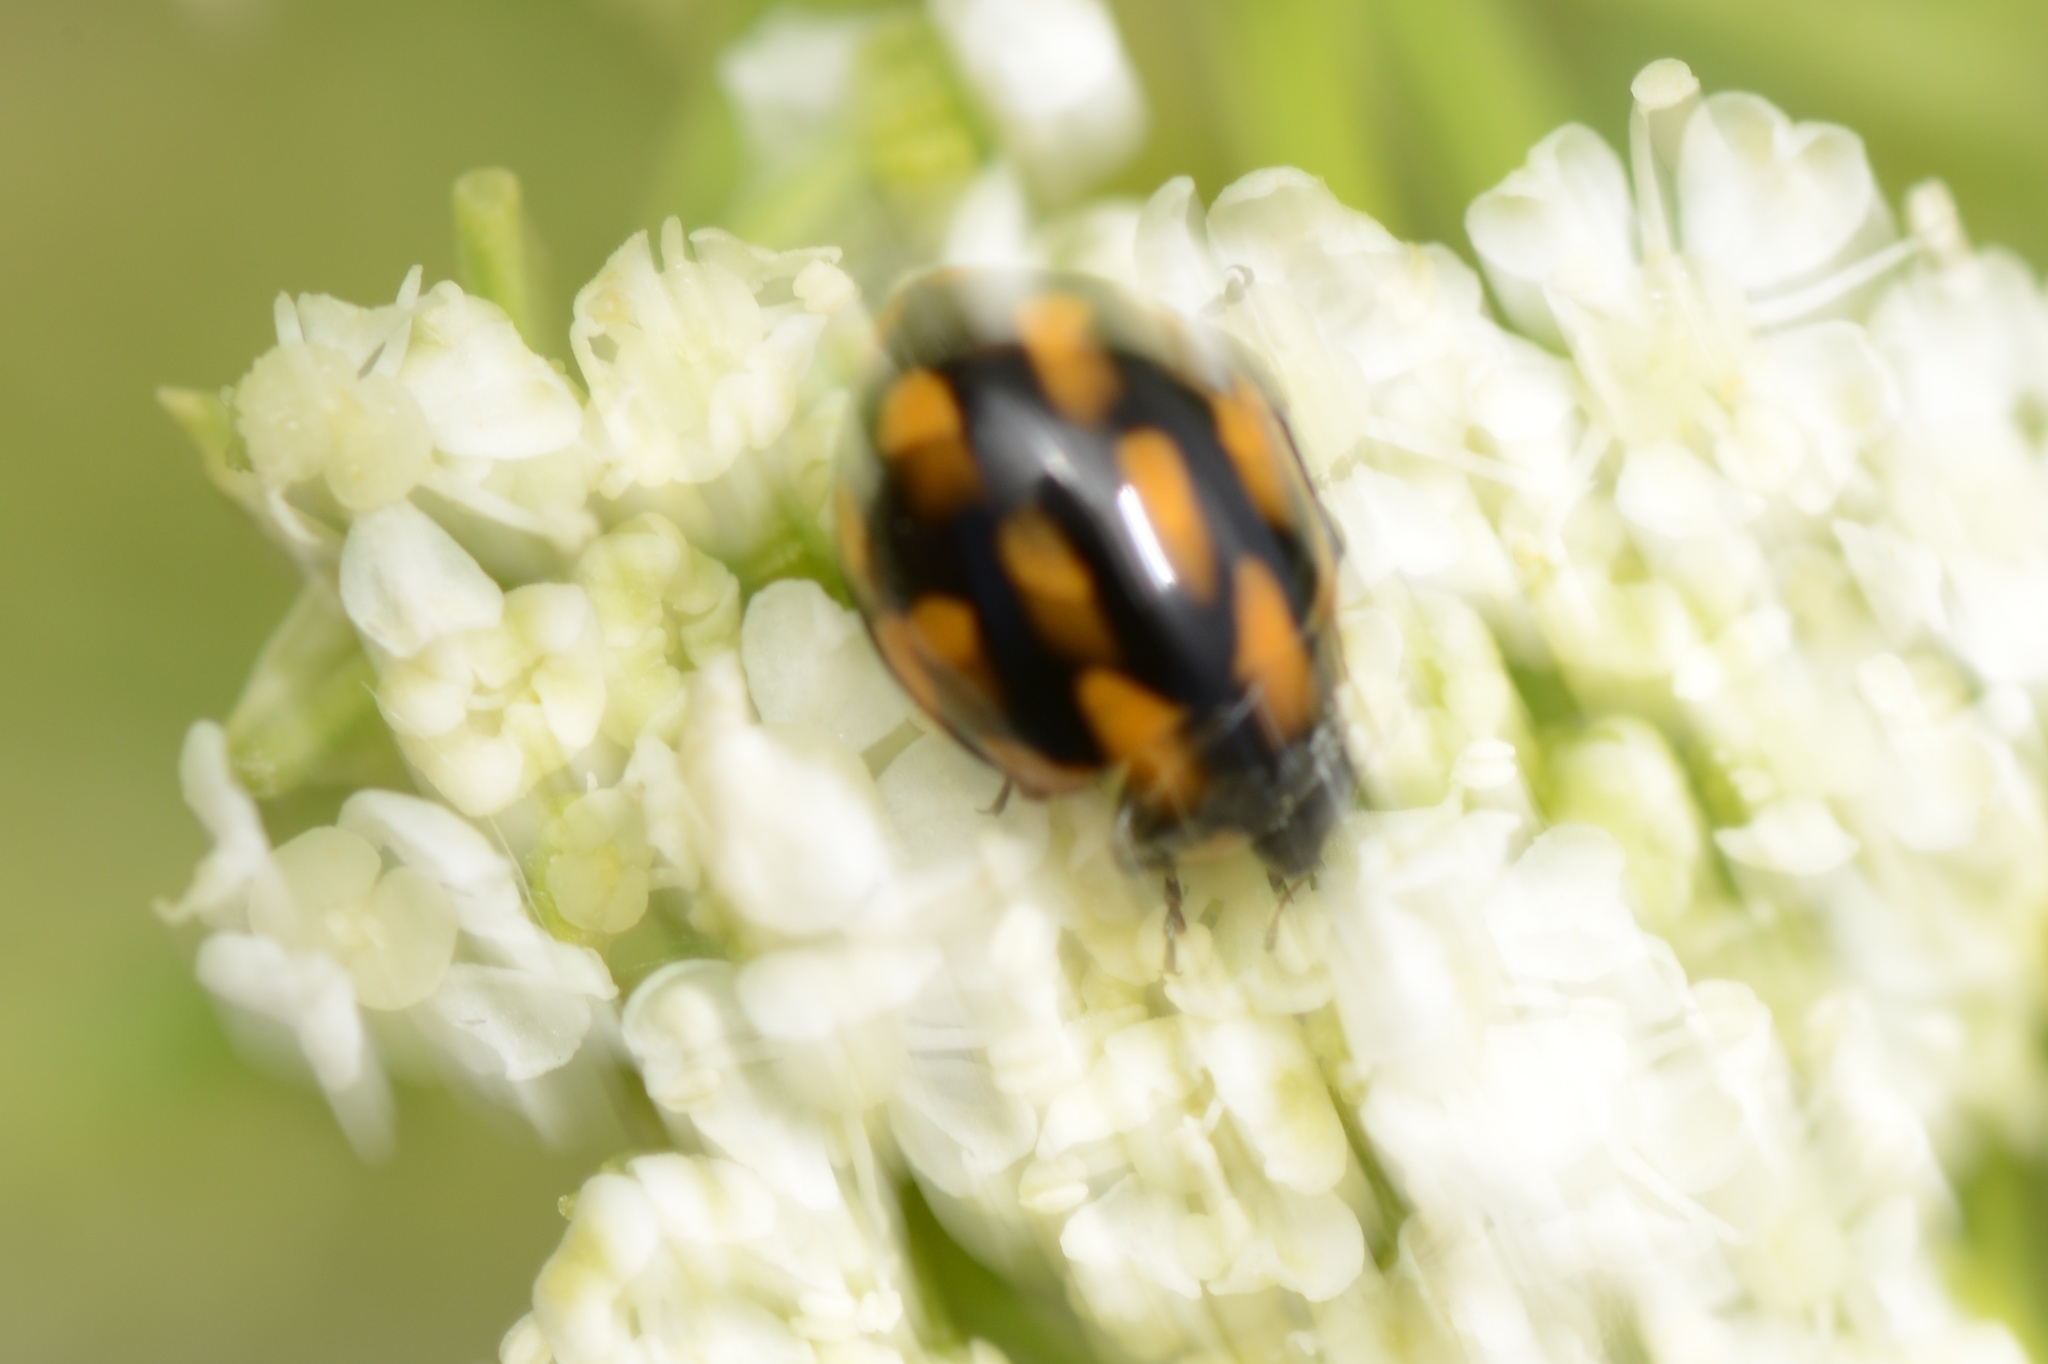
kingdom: Animalia
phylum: Arthropoda
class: Insecta
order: Coleoptera
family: Coccinellidae
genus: Coccinella
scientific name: Coccinella leonina
